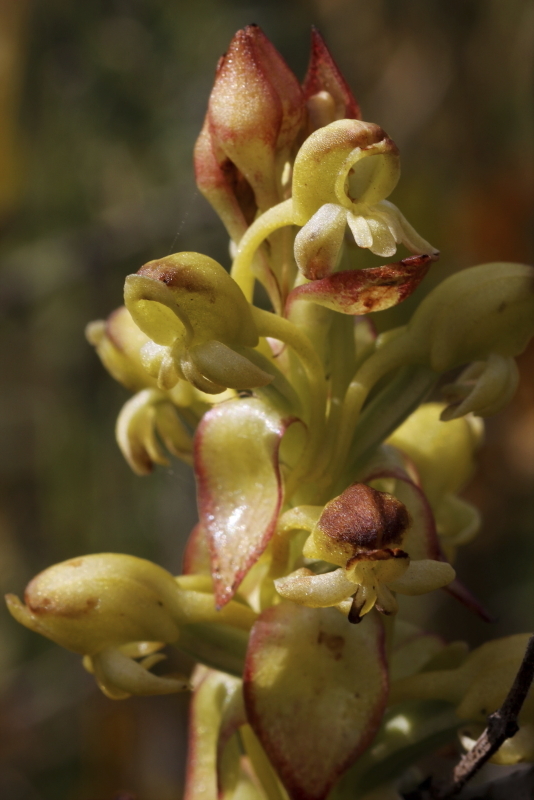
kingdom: Plantae
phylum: Tracheophyta
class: Liliopsida
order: Asparagales
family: Orchidaceae
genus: Satyrium
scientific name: Satyrium odorum
